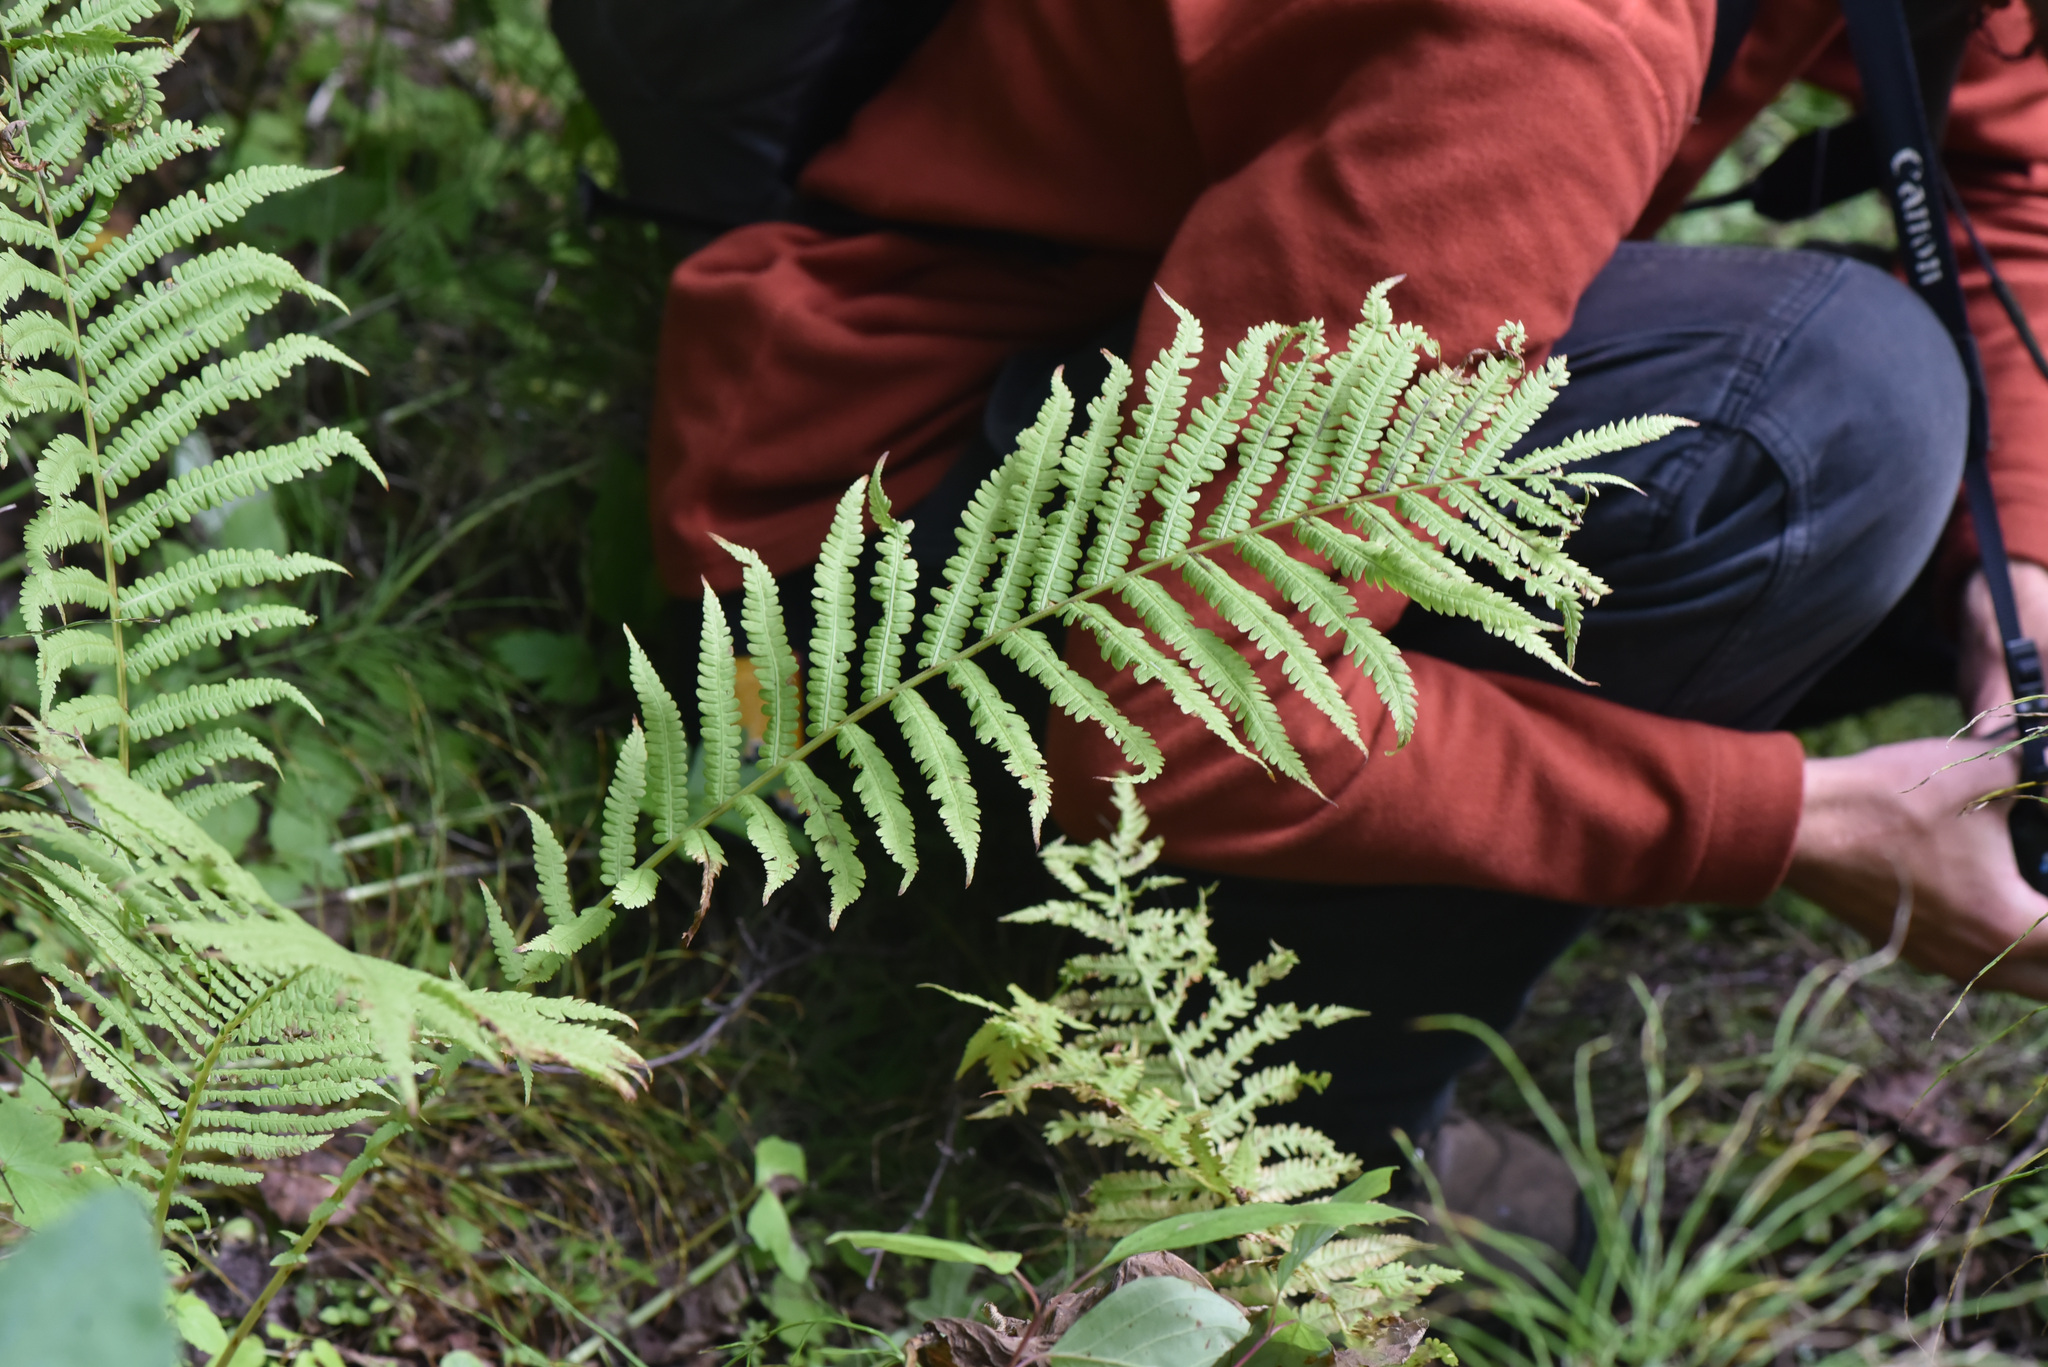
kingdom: Plantae
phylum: Tracheophyta
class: Polypodiopsida
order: Polypodiales
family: Onocleaceae
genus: Matteuccia
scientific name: Matteuccia struthiopteris
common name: Ostrich fern
